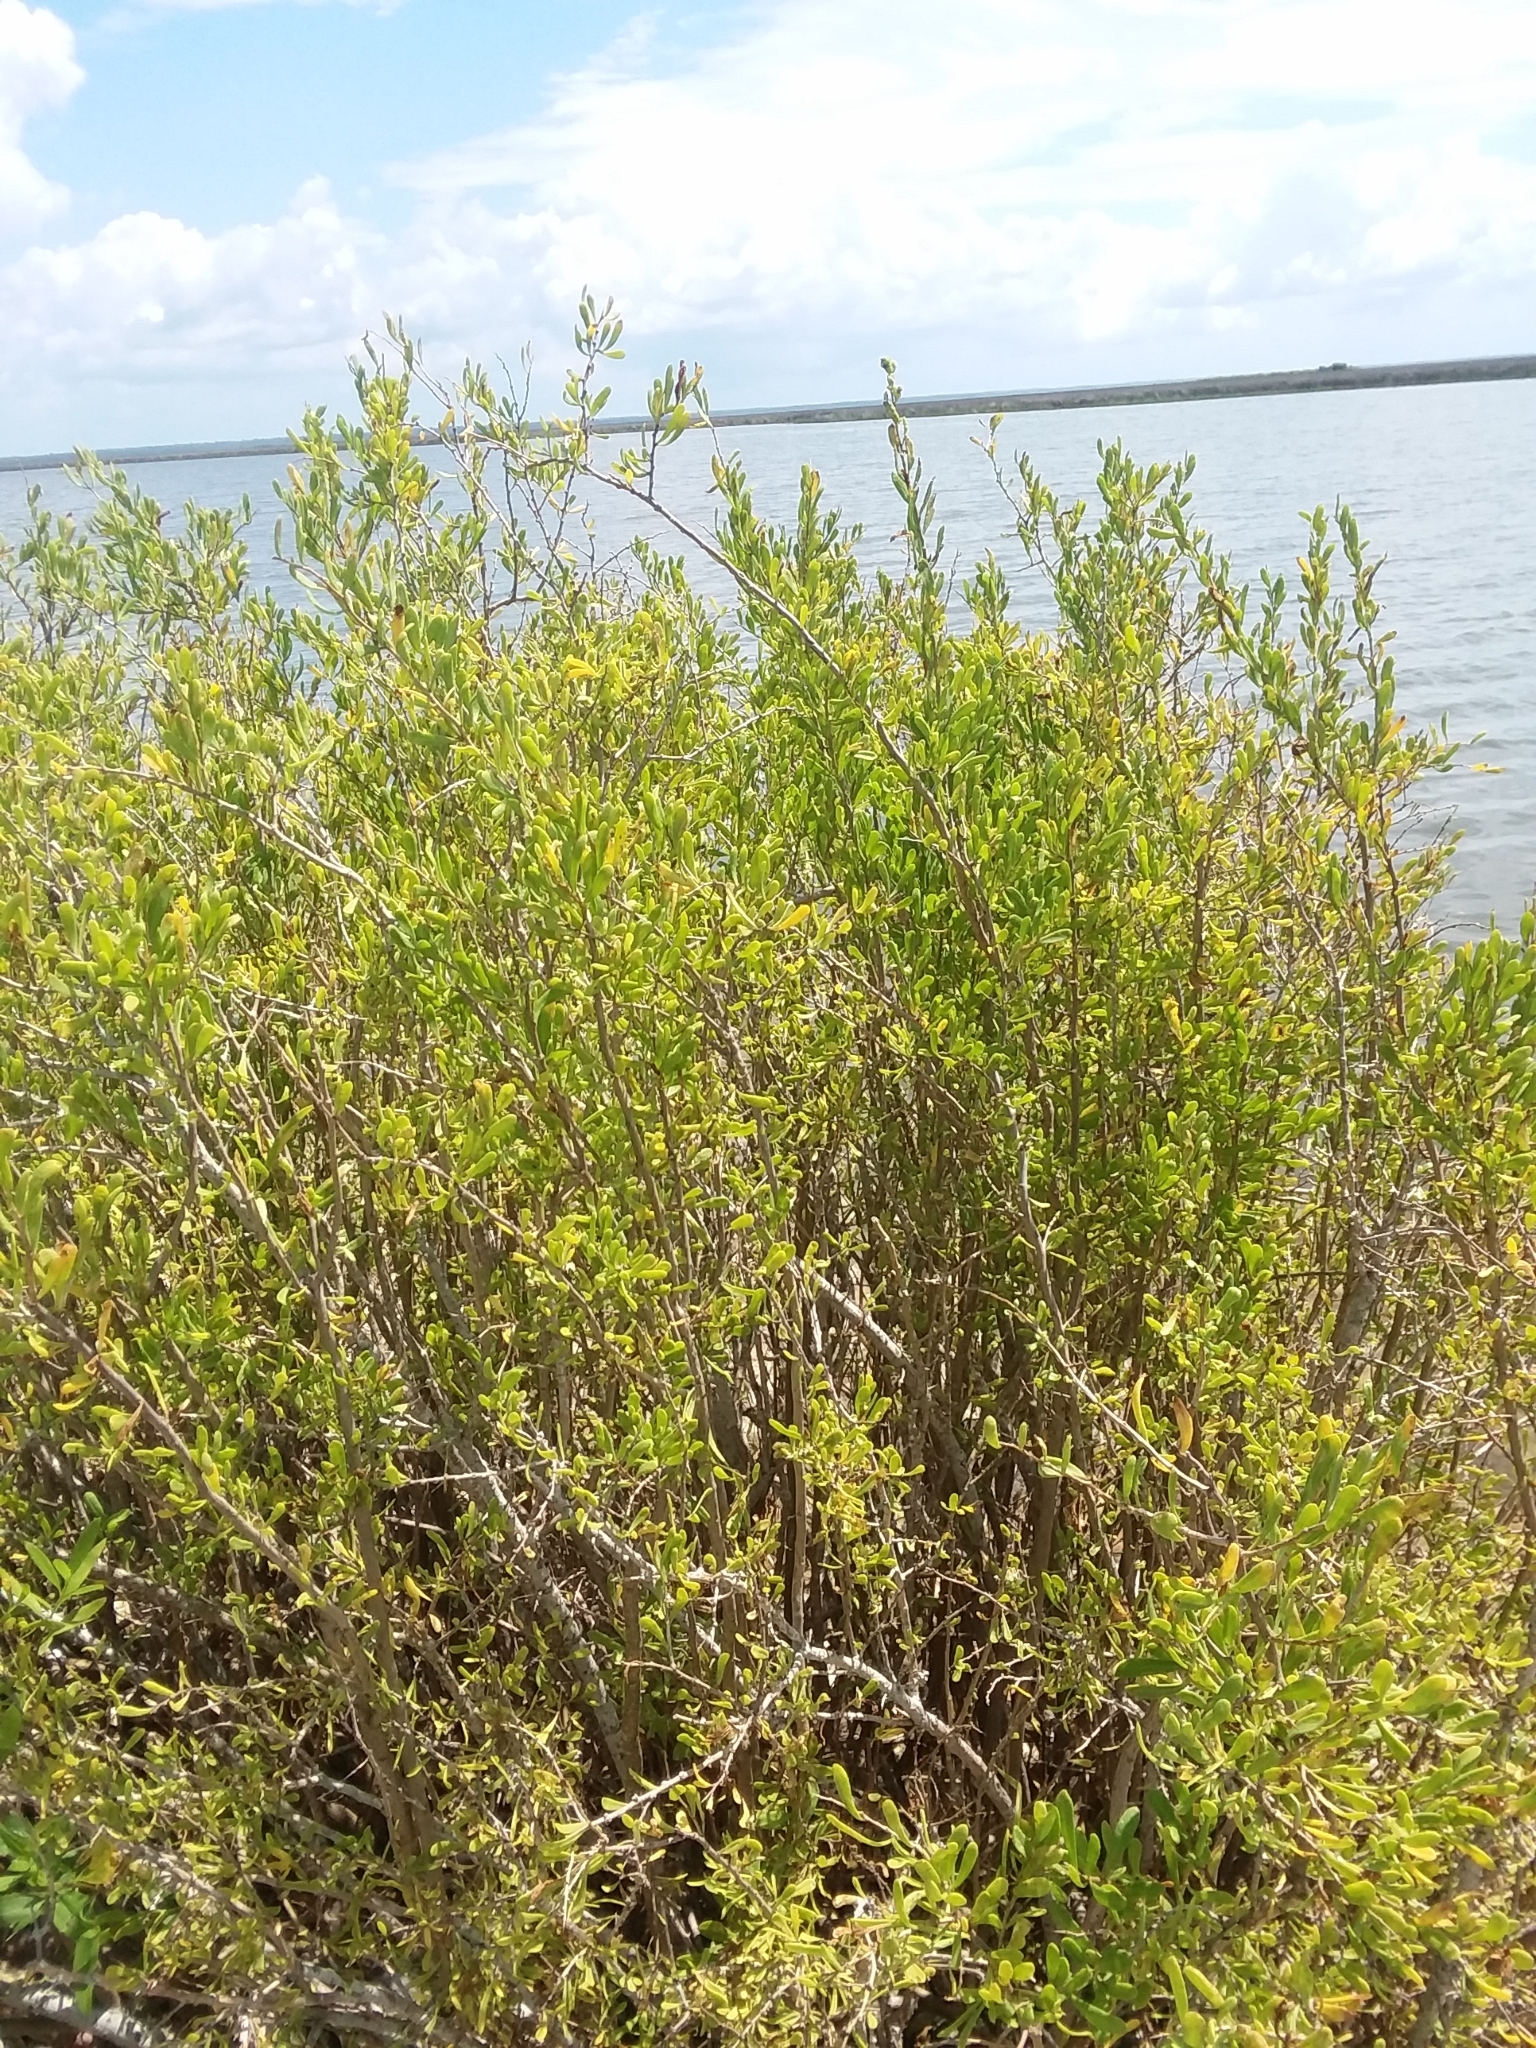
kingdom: Plantae
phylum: Tracheophyta
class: Magnoliopsida
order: Solanales
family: Solanaceae
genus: Lycium
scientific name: Lycium carolinianum
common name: Christmasberry
